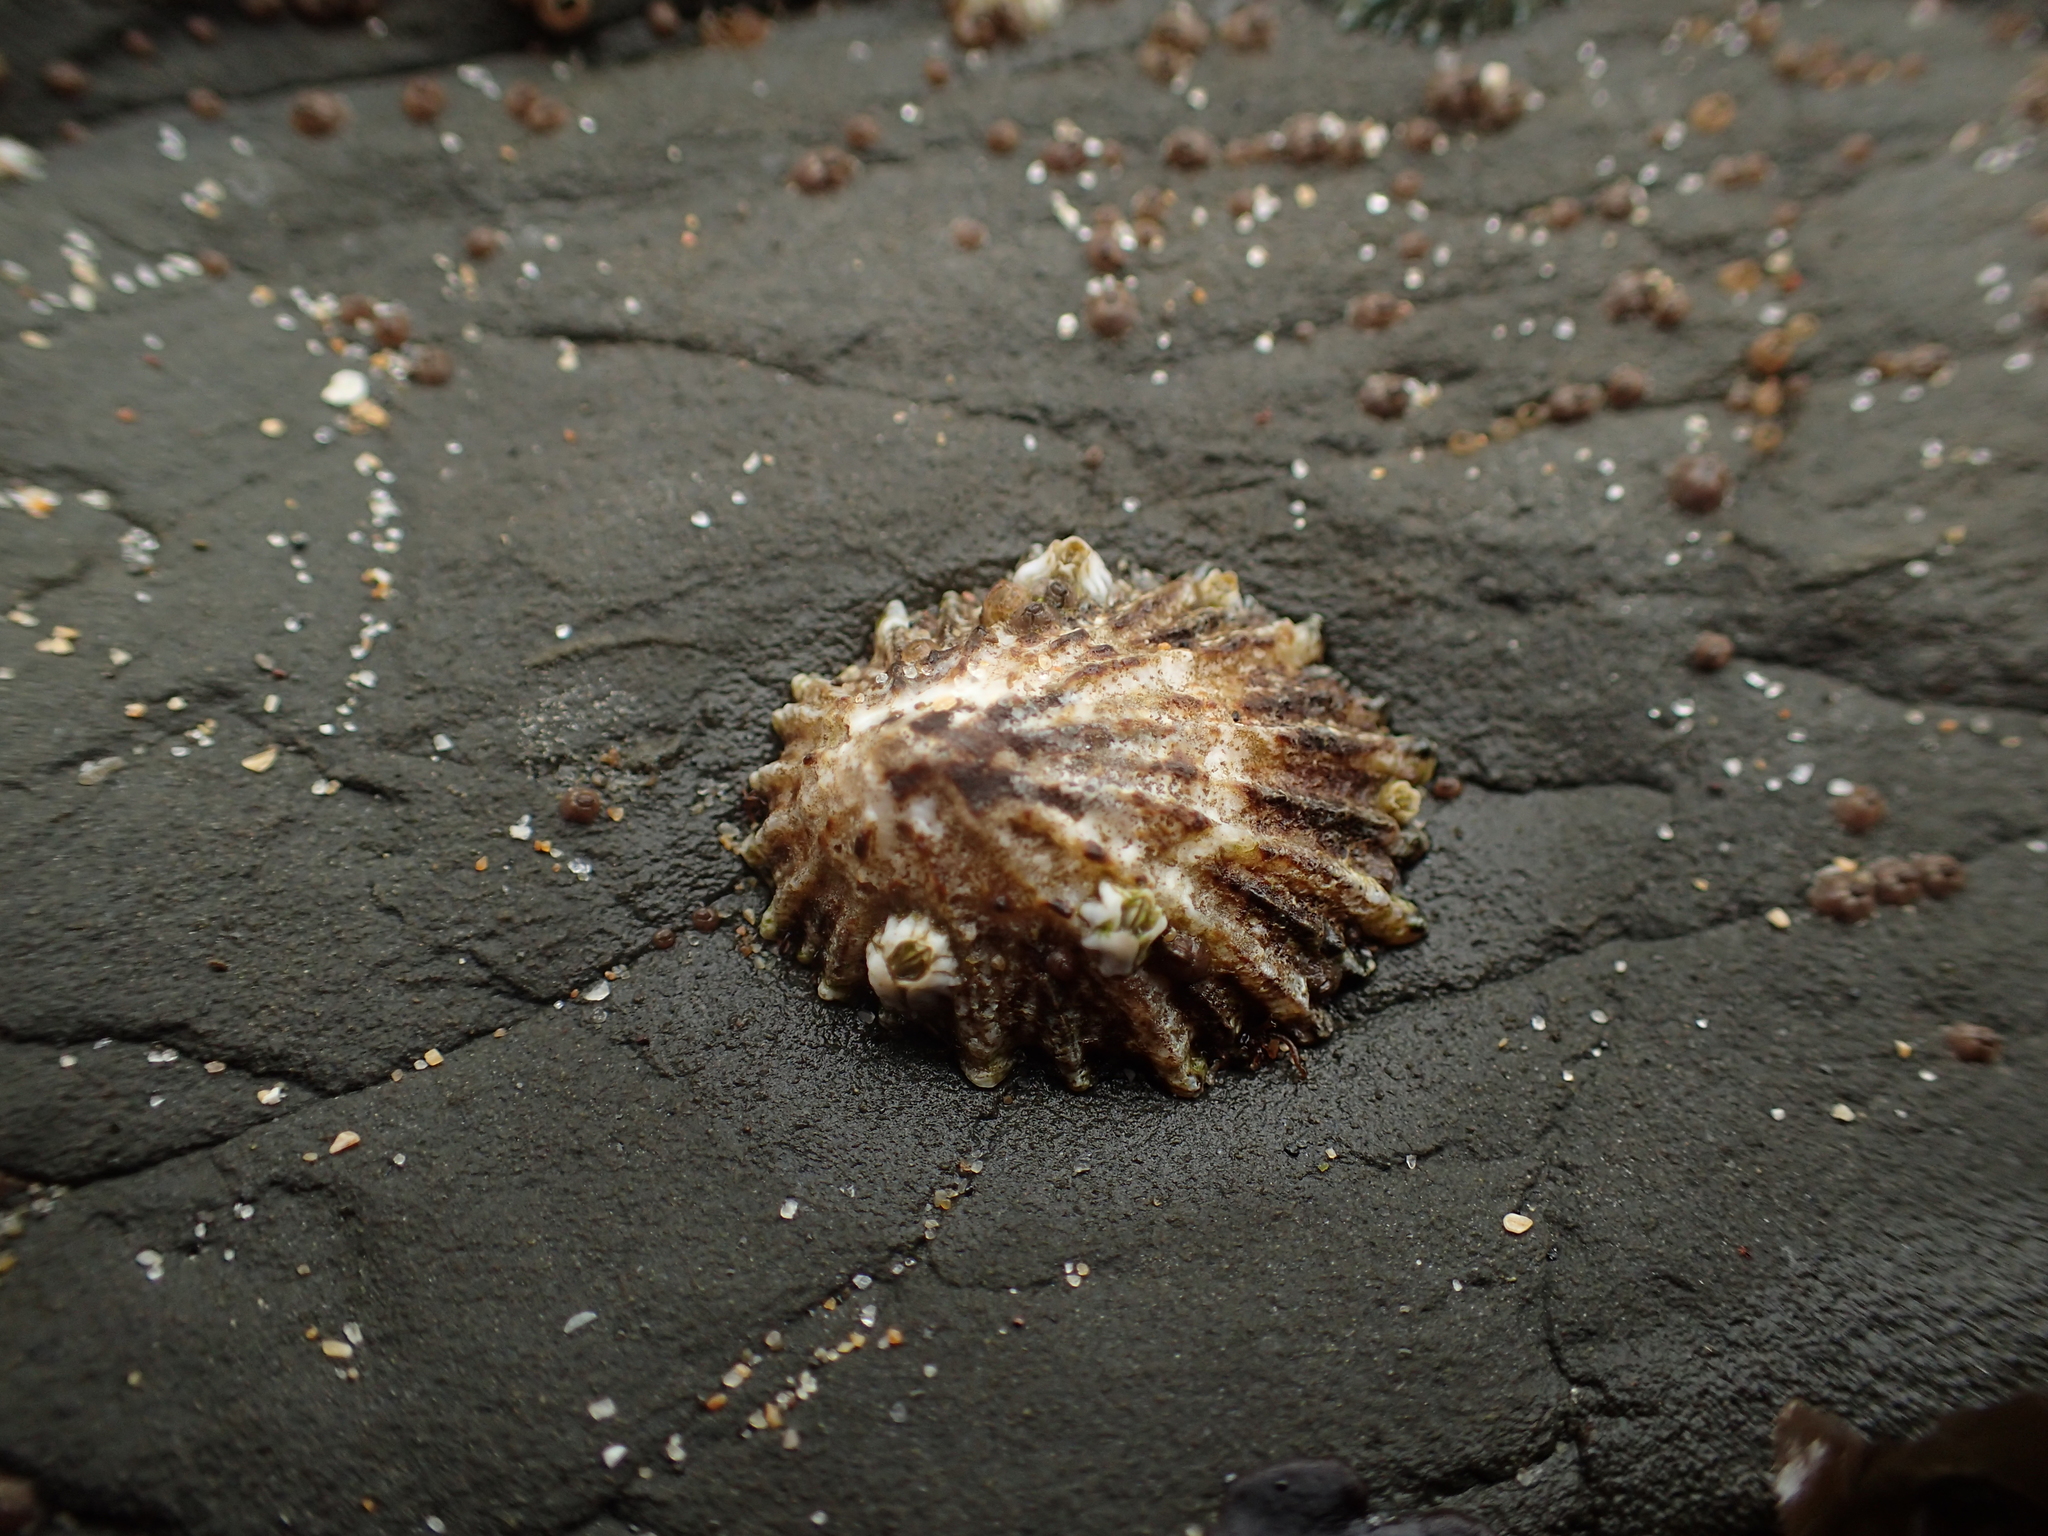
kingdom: Animalia
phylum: Mollusca
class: Gastropoda
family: Lottiidae
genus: Lottia
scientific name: Lottia scabra
